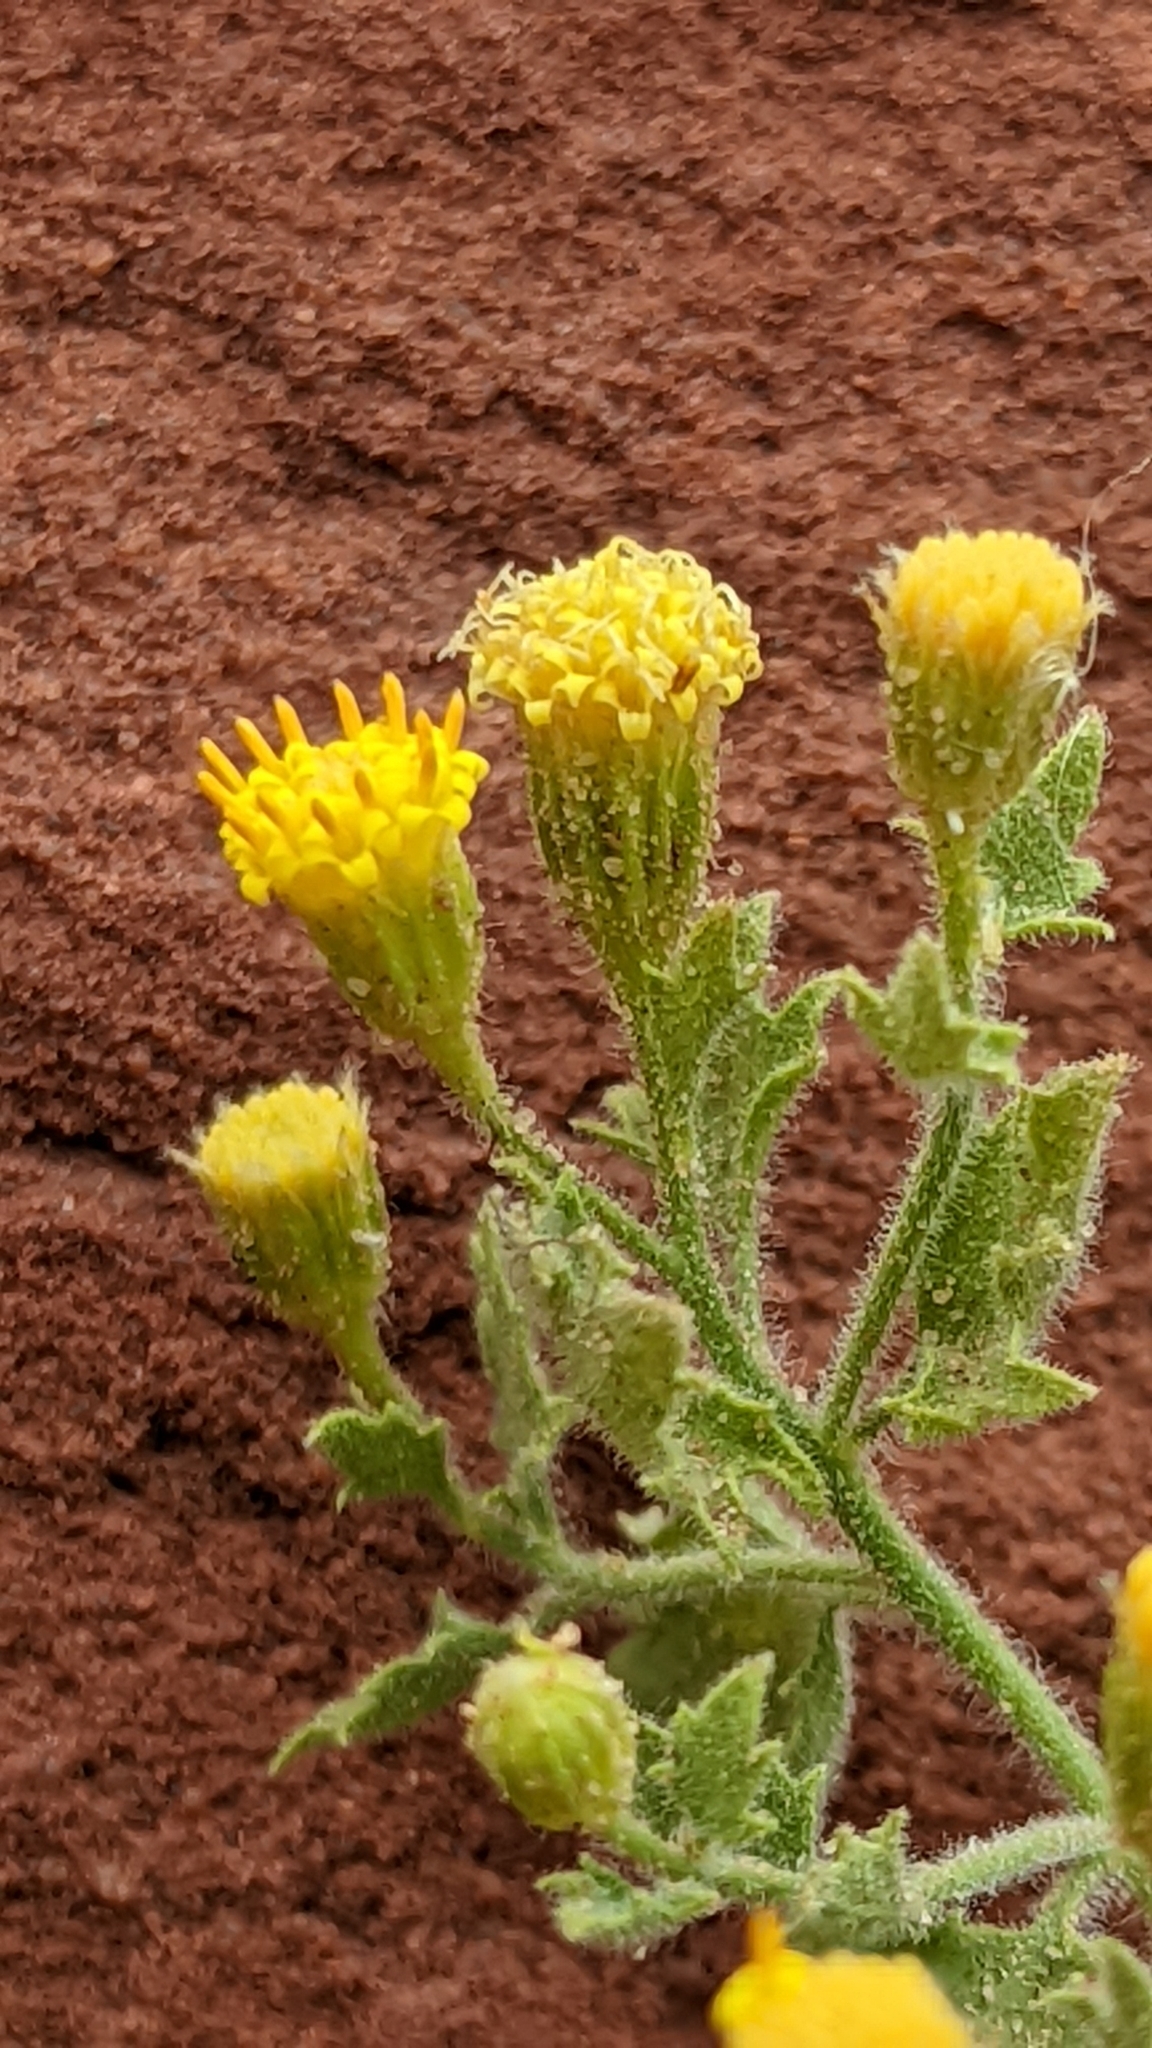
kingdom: Plantae
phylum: Tracheophyta
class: Magnoliopsida
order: Asterales
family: Asteraceae
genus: Laphamia
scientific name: Laphamia sanchezii
